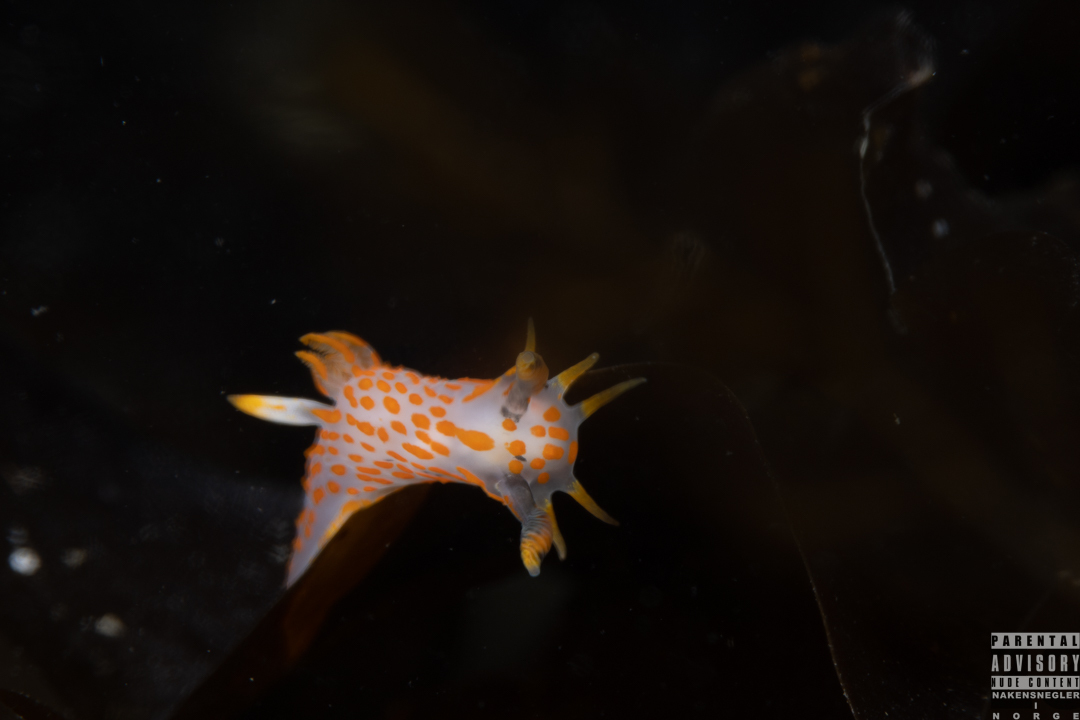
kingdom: Animalia
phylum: Mollusca
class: Gastropoda
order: Nudibranchia
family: Polyceridae
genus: Polycera
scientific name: Polycera quadrilineata
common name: Four-striped polycera
